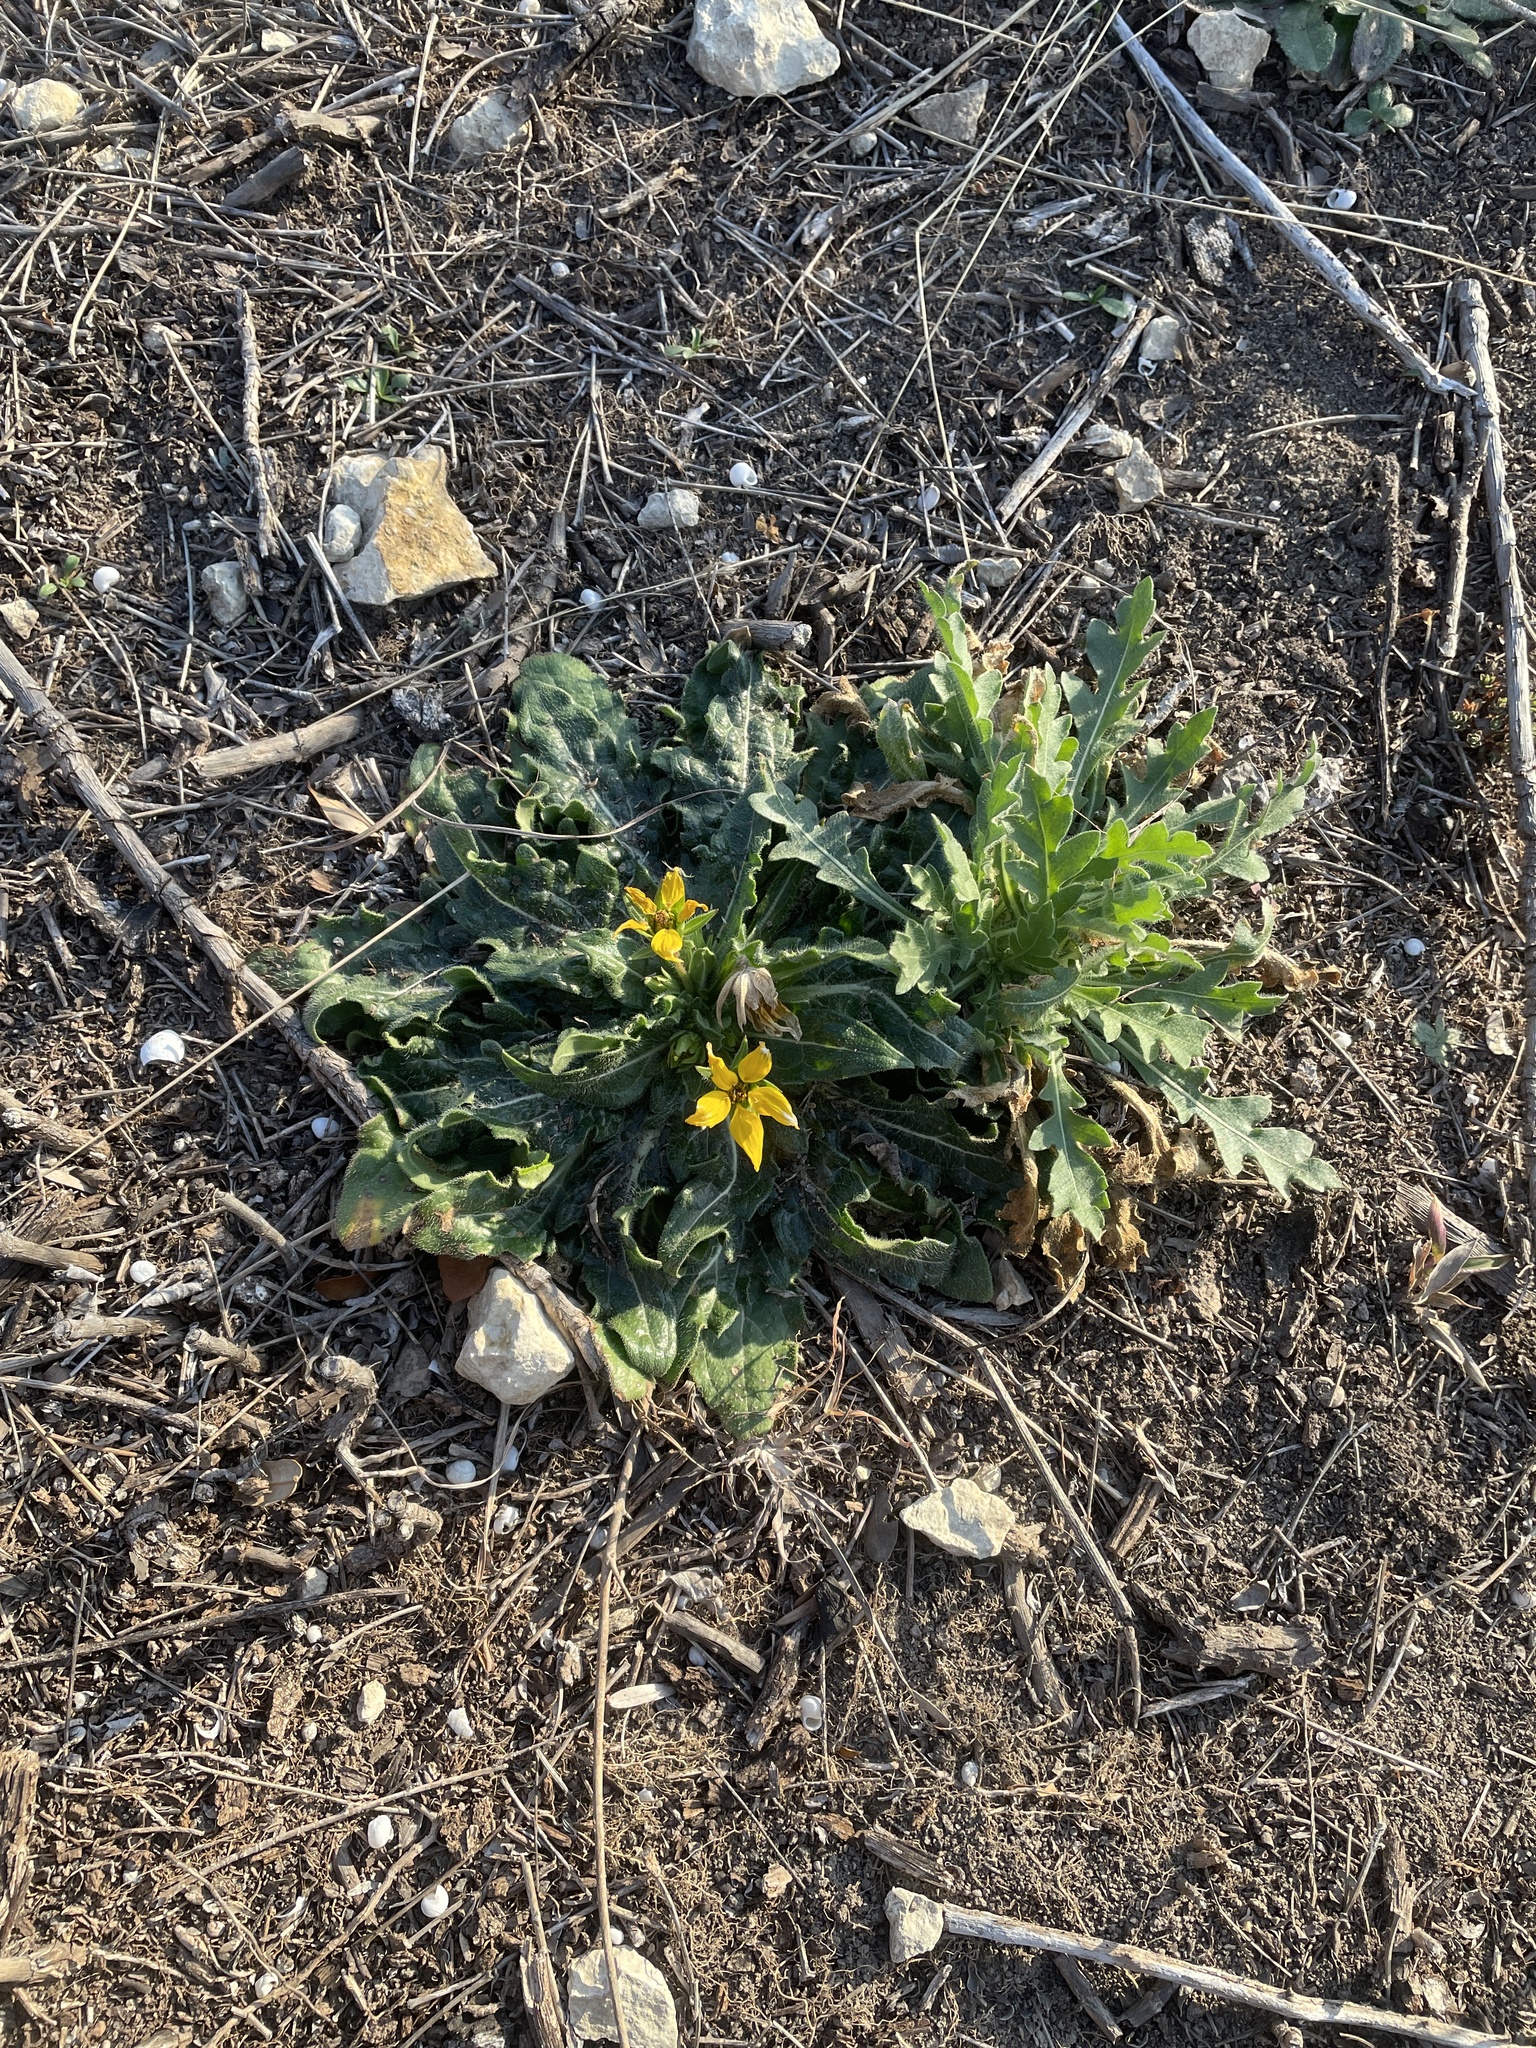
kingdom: Plantae
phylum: Tracheophyta
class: Magnoliopsida
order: Asterales
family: Asteraceae
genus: Engelmannia
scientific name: Engelmannia peristenia
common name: Engelmann's daisy
